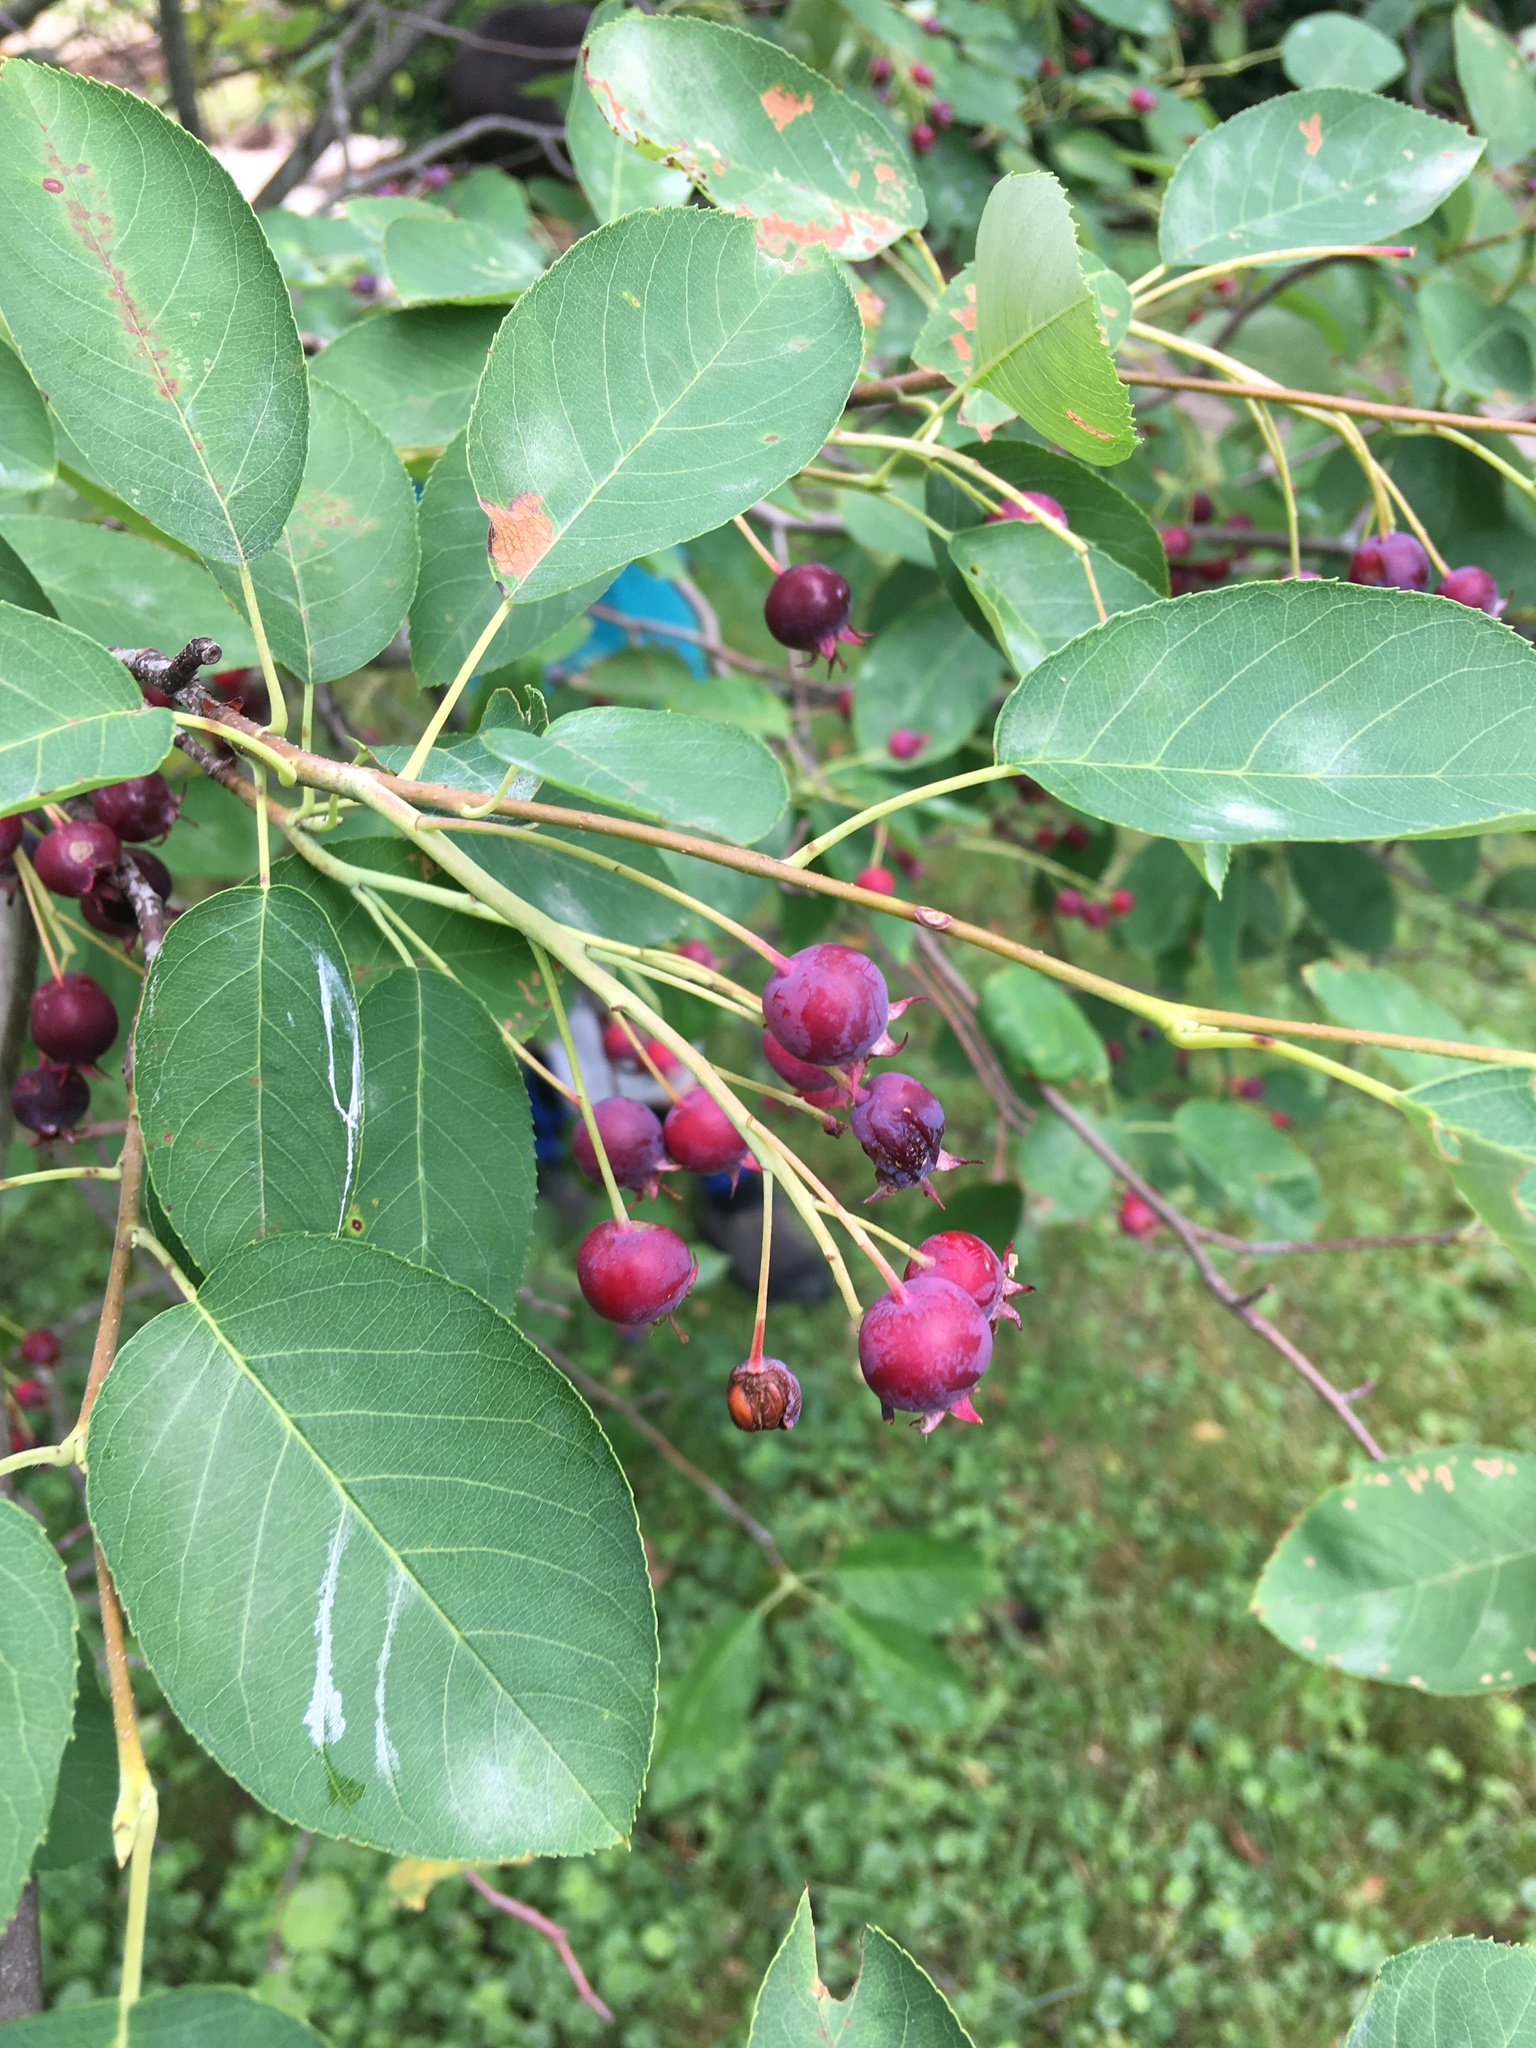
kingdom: Plantae
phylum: Tracheophyta
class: Magnoliopsida
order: Rosales
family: Rosaceae
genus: Amelanchier
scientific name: Amelanchier arborea
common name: Downy serviceberry
